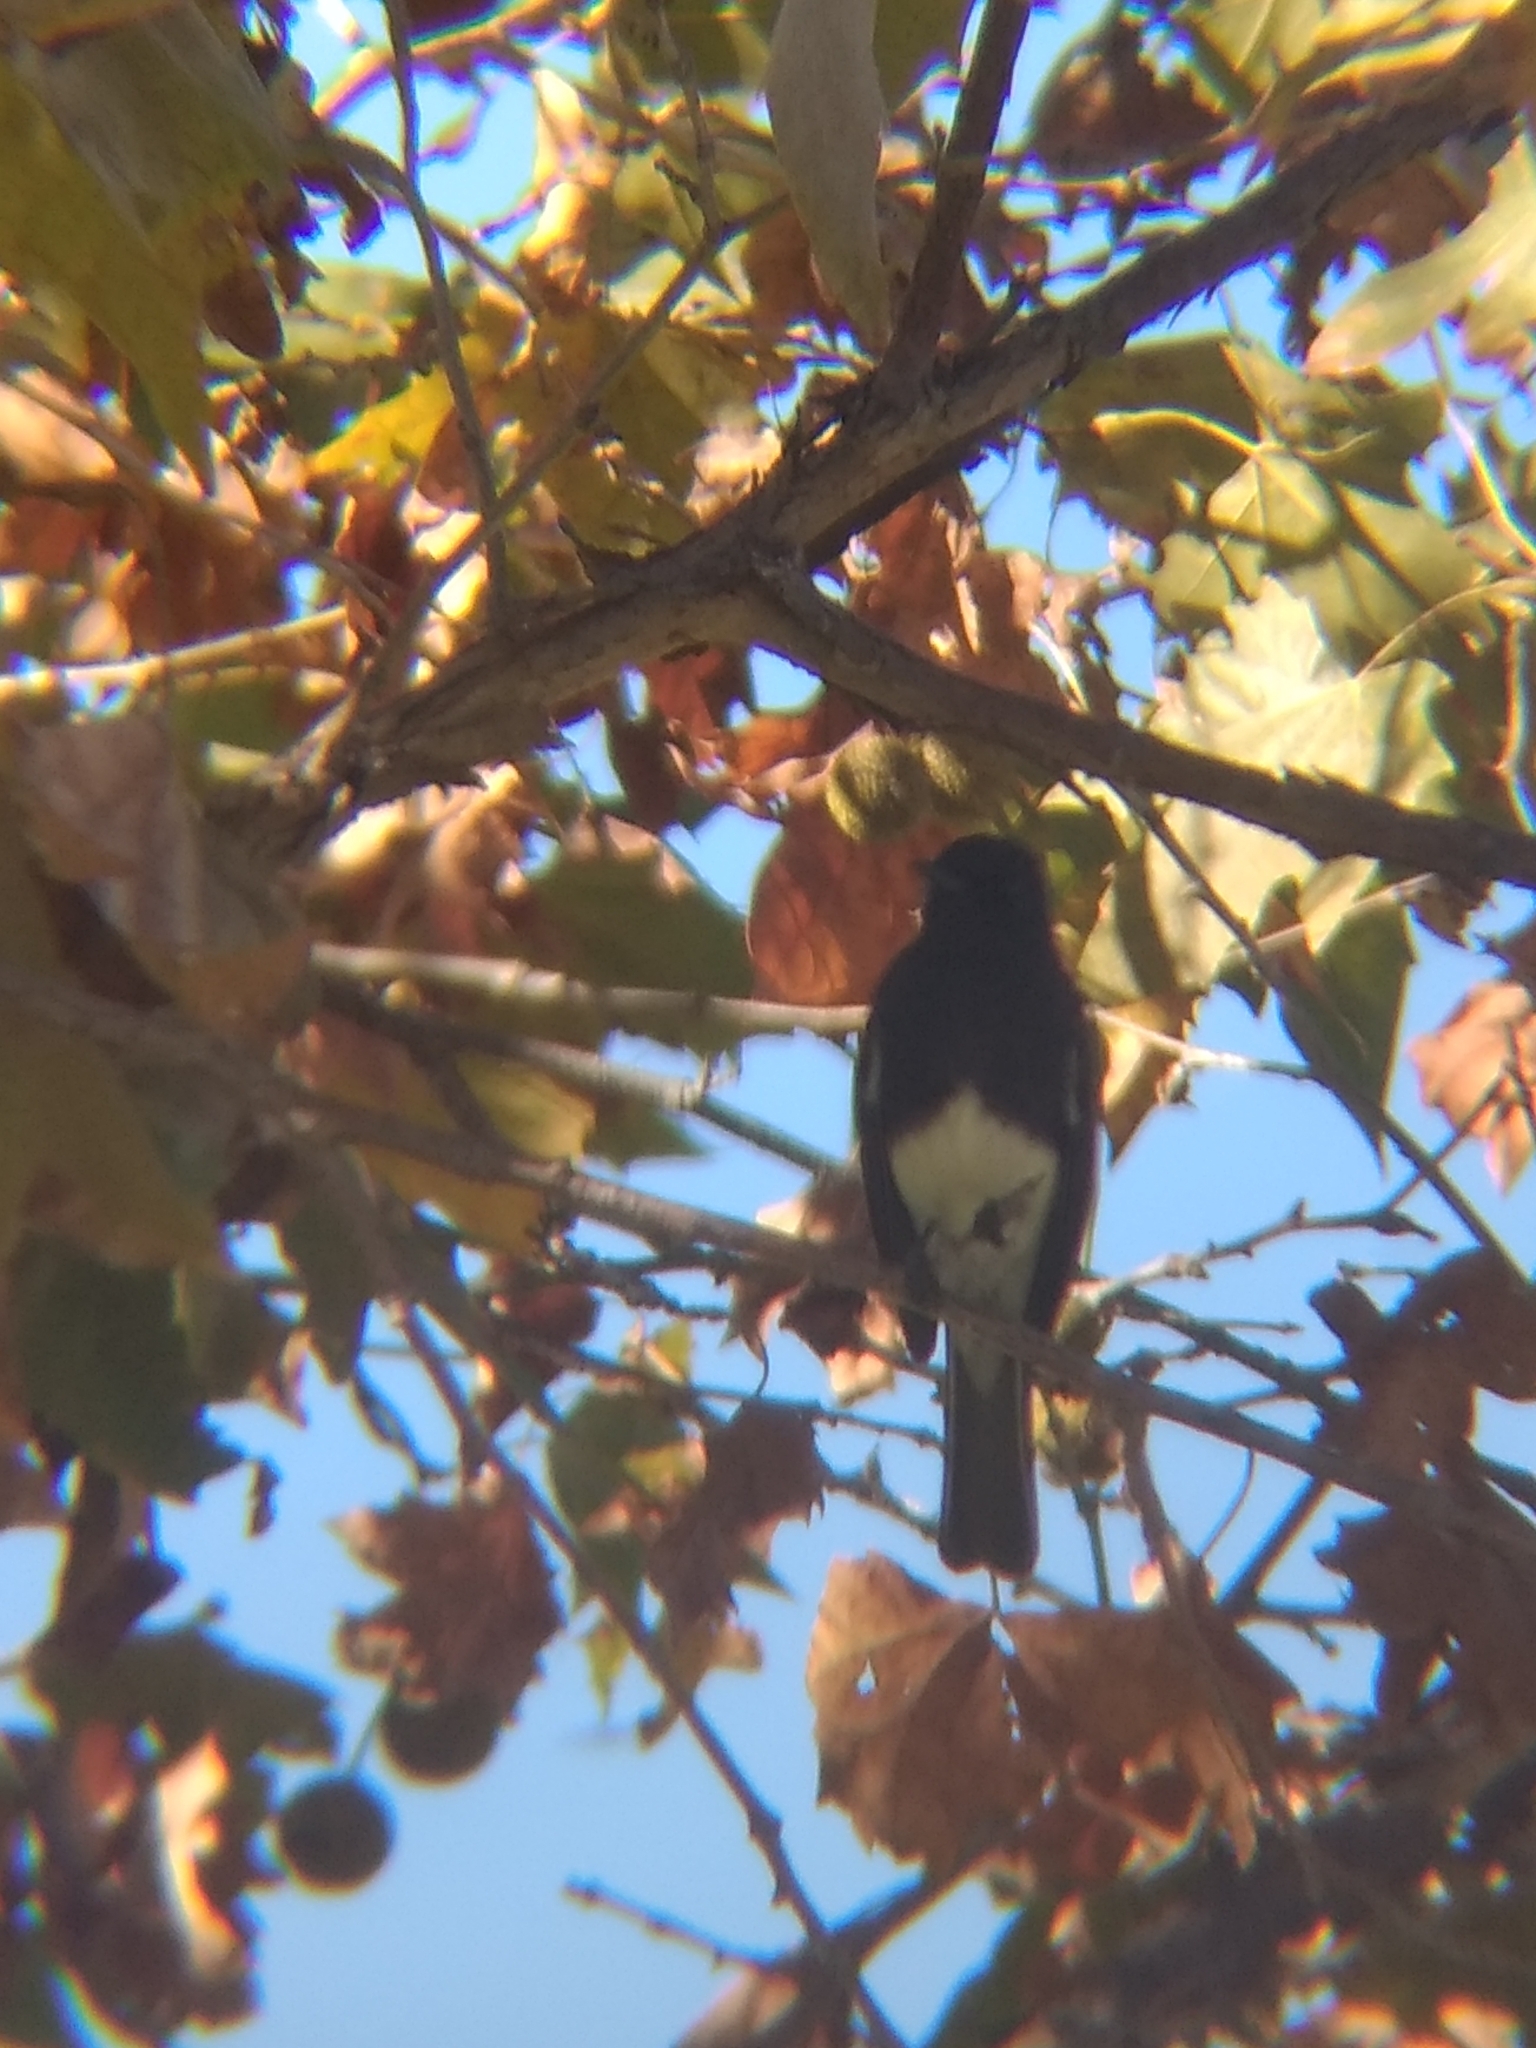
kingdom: Animalia
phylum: Chordata
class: Aves
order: Passeriformes
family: Tyrannidae
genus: Sayornis
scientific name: Sayornis nigricans
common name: Black phoebe
